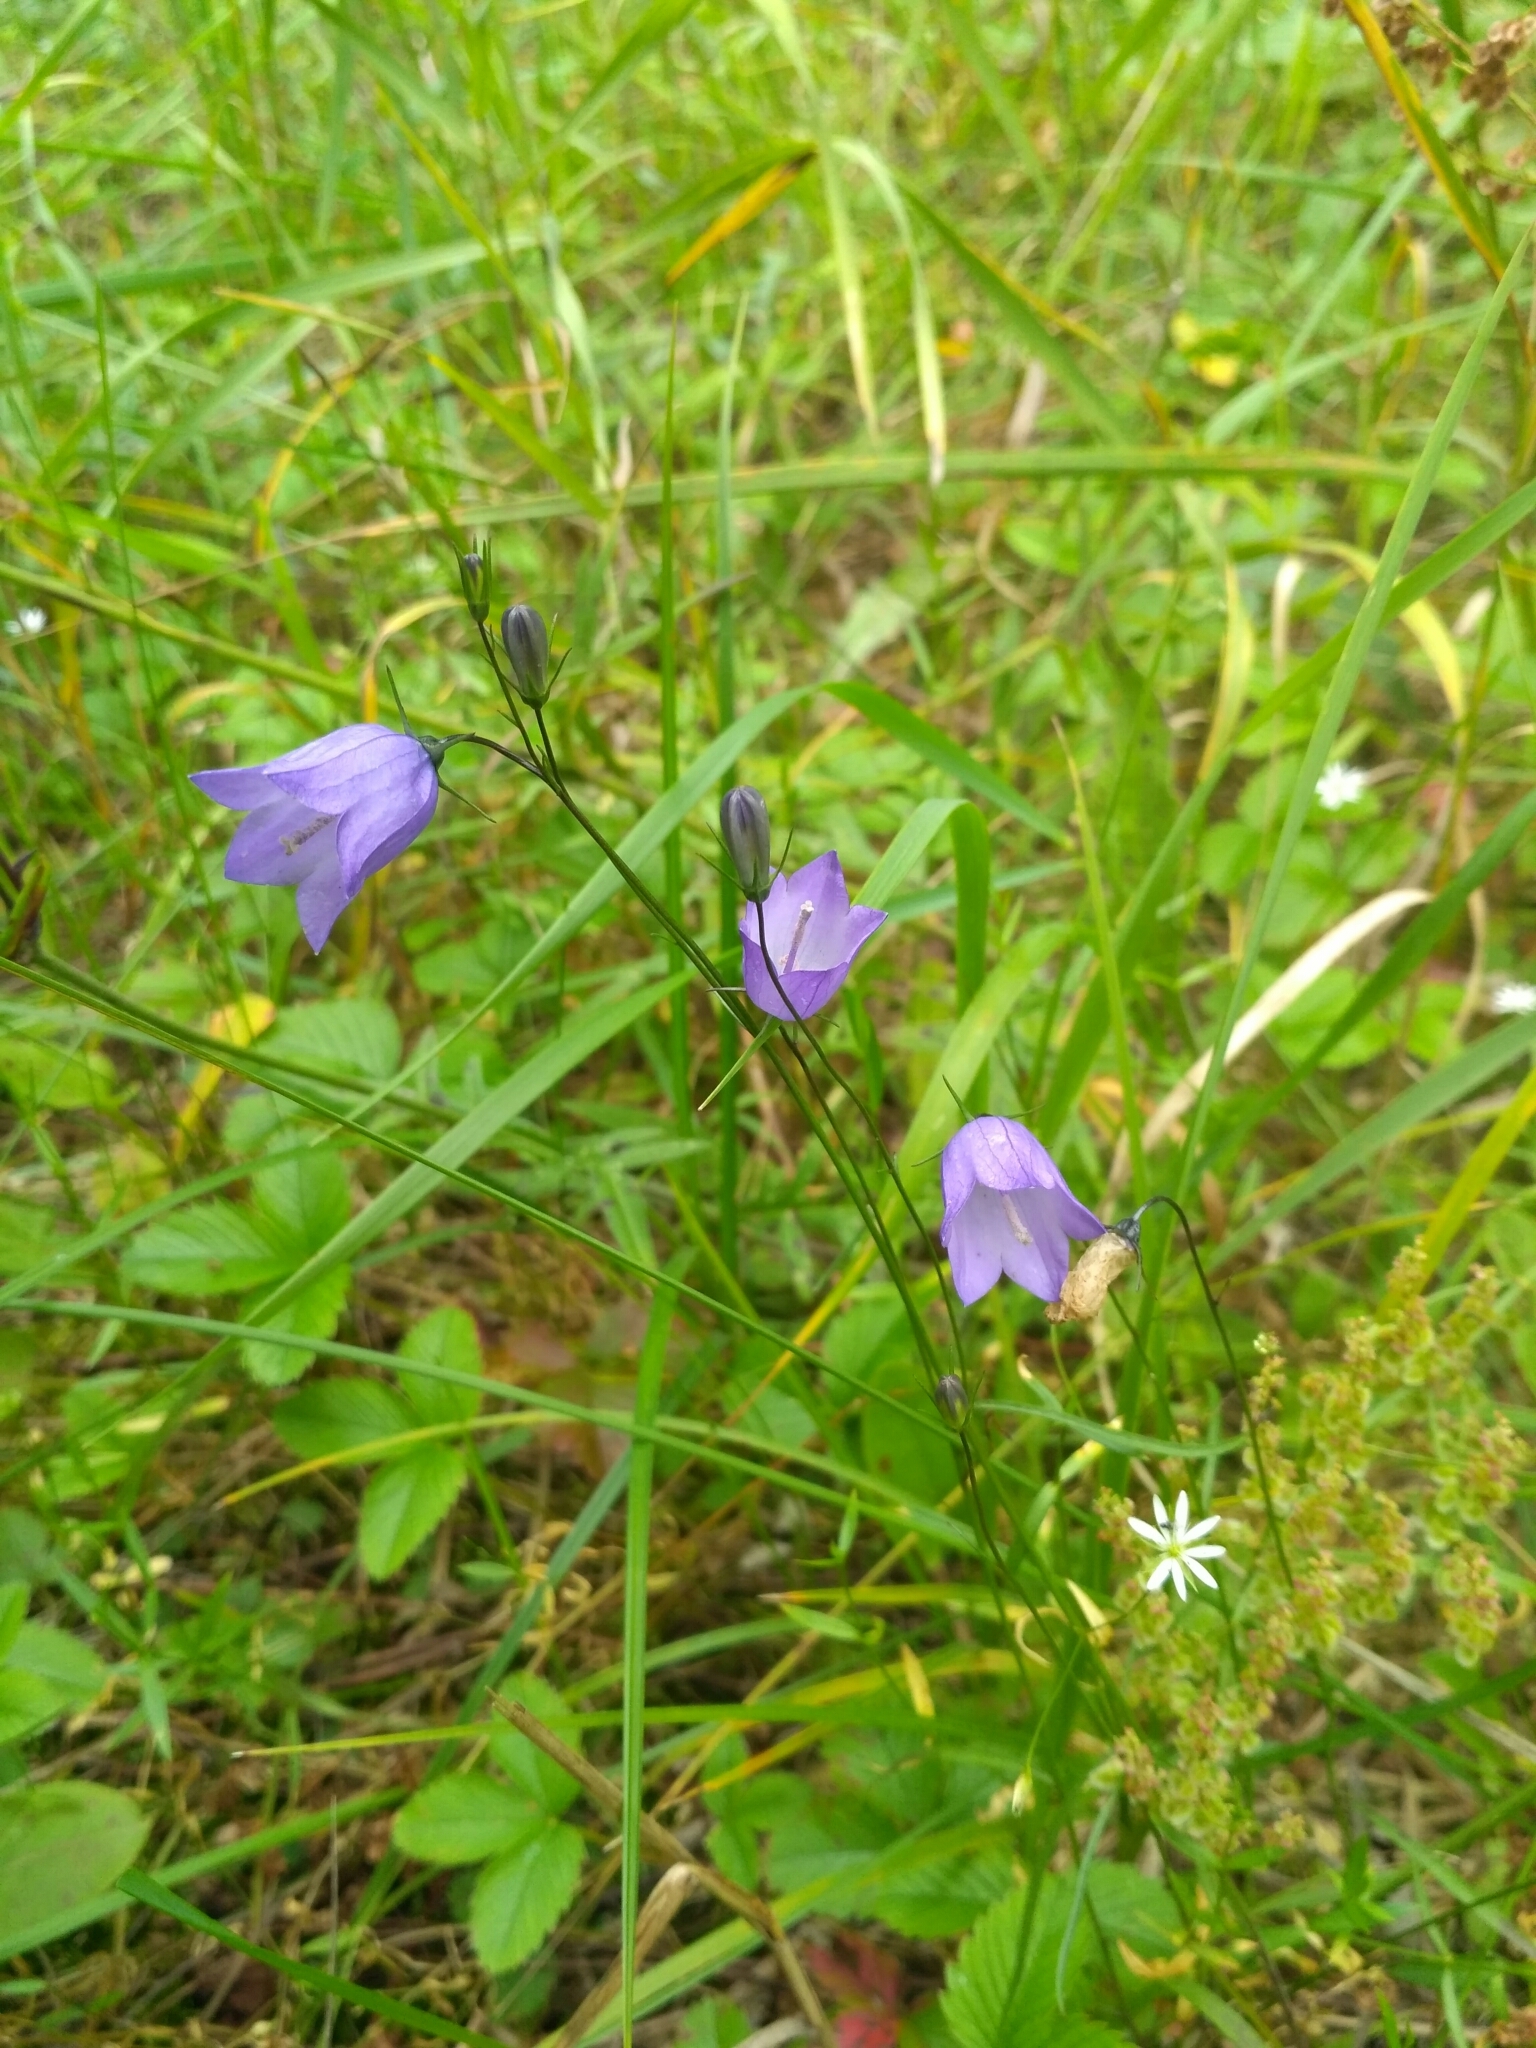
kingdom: Plantae
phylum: Tracheophyta
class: Magnoliopsida
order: Asterales
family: Campanulaceae
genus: Campanula
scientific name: Campanula rotundifolia
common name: Harebell
